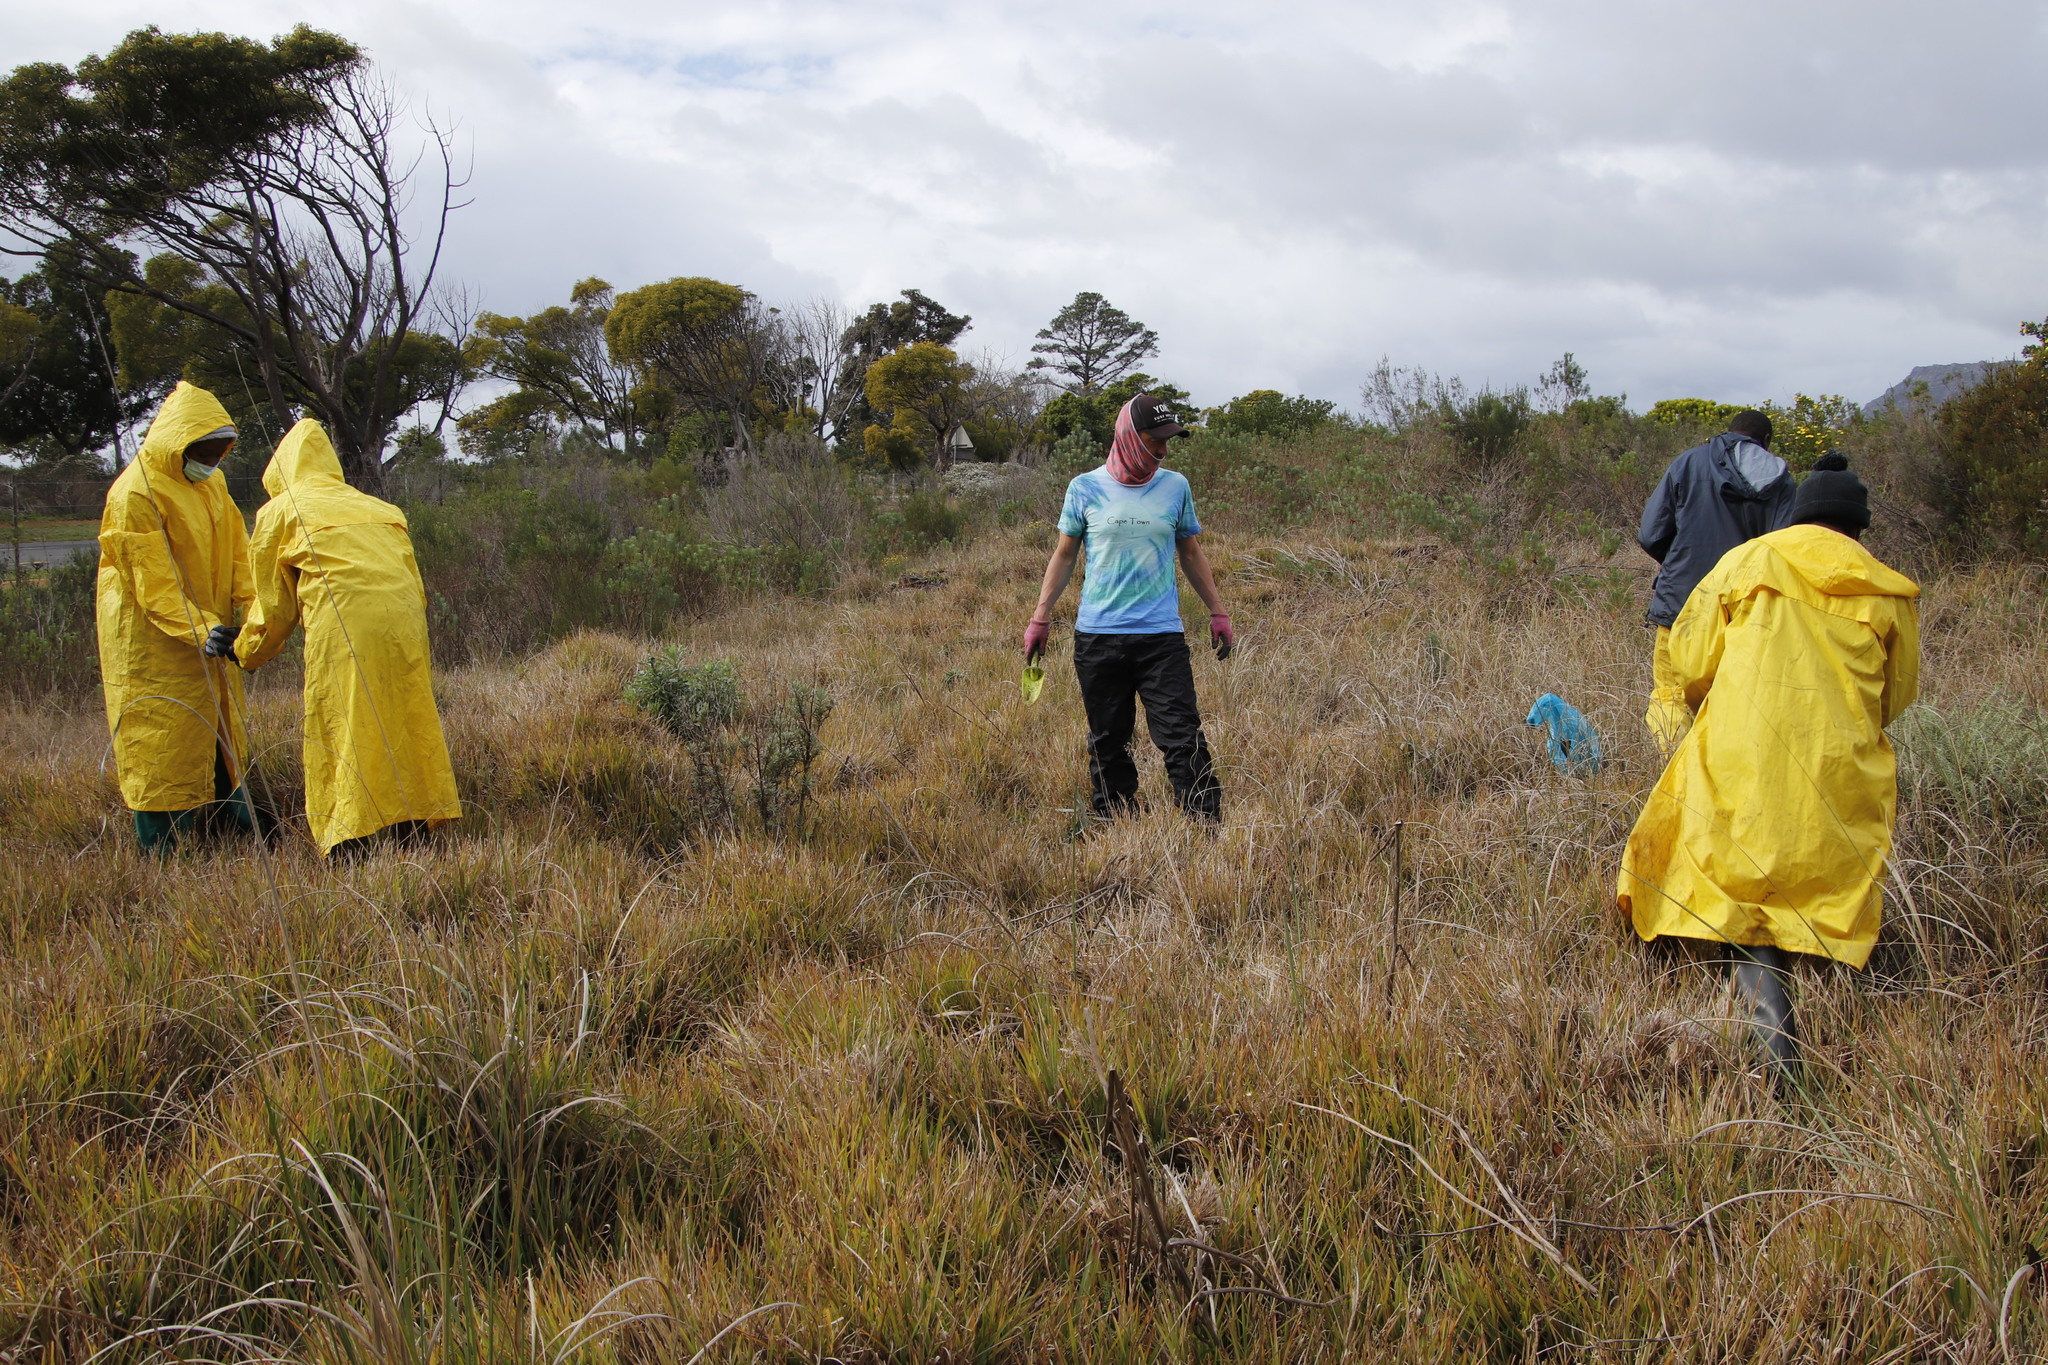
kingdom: Plantae
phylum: Tracheophyta
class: Liliopsida
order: Poales
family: Poaceae
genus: Stenotaphrum
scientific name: Stenotaphrum secundatum
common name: St. augustine grass
